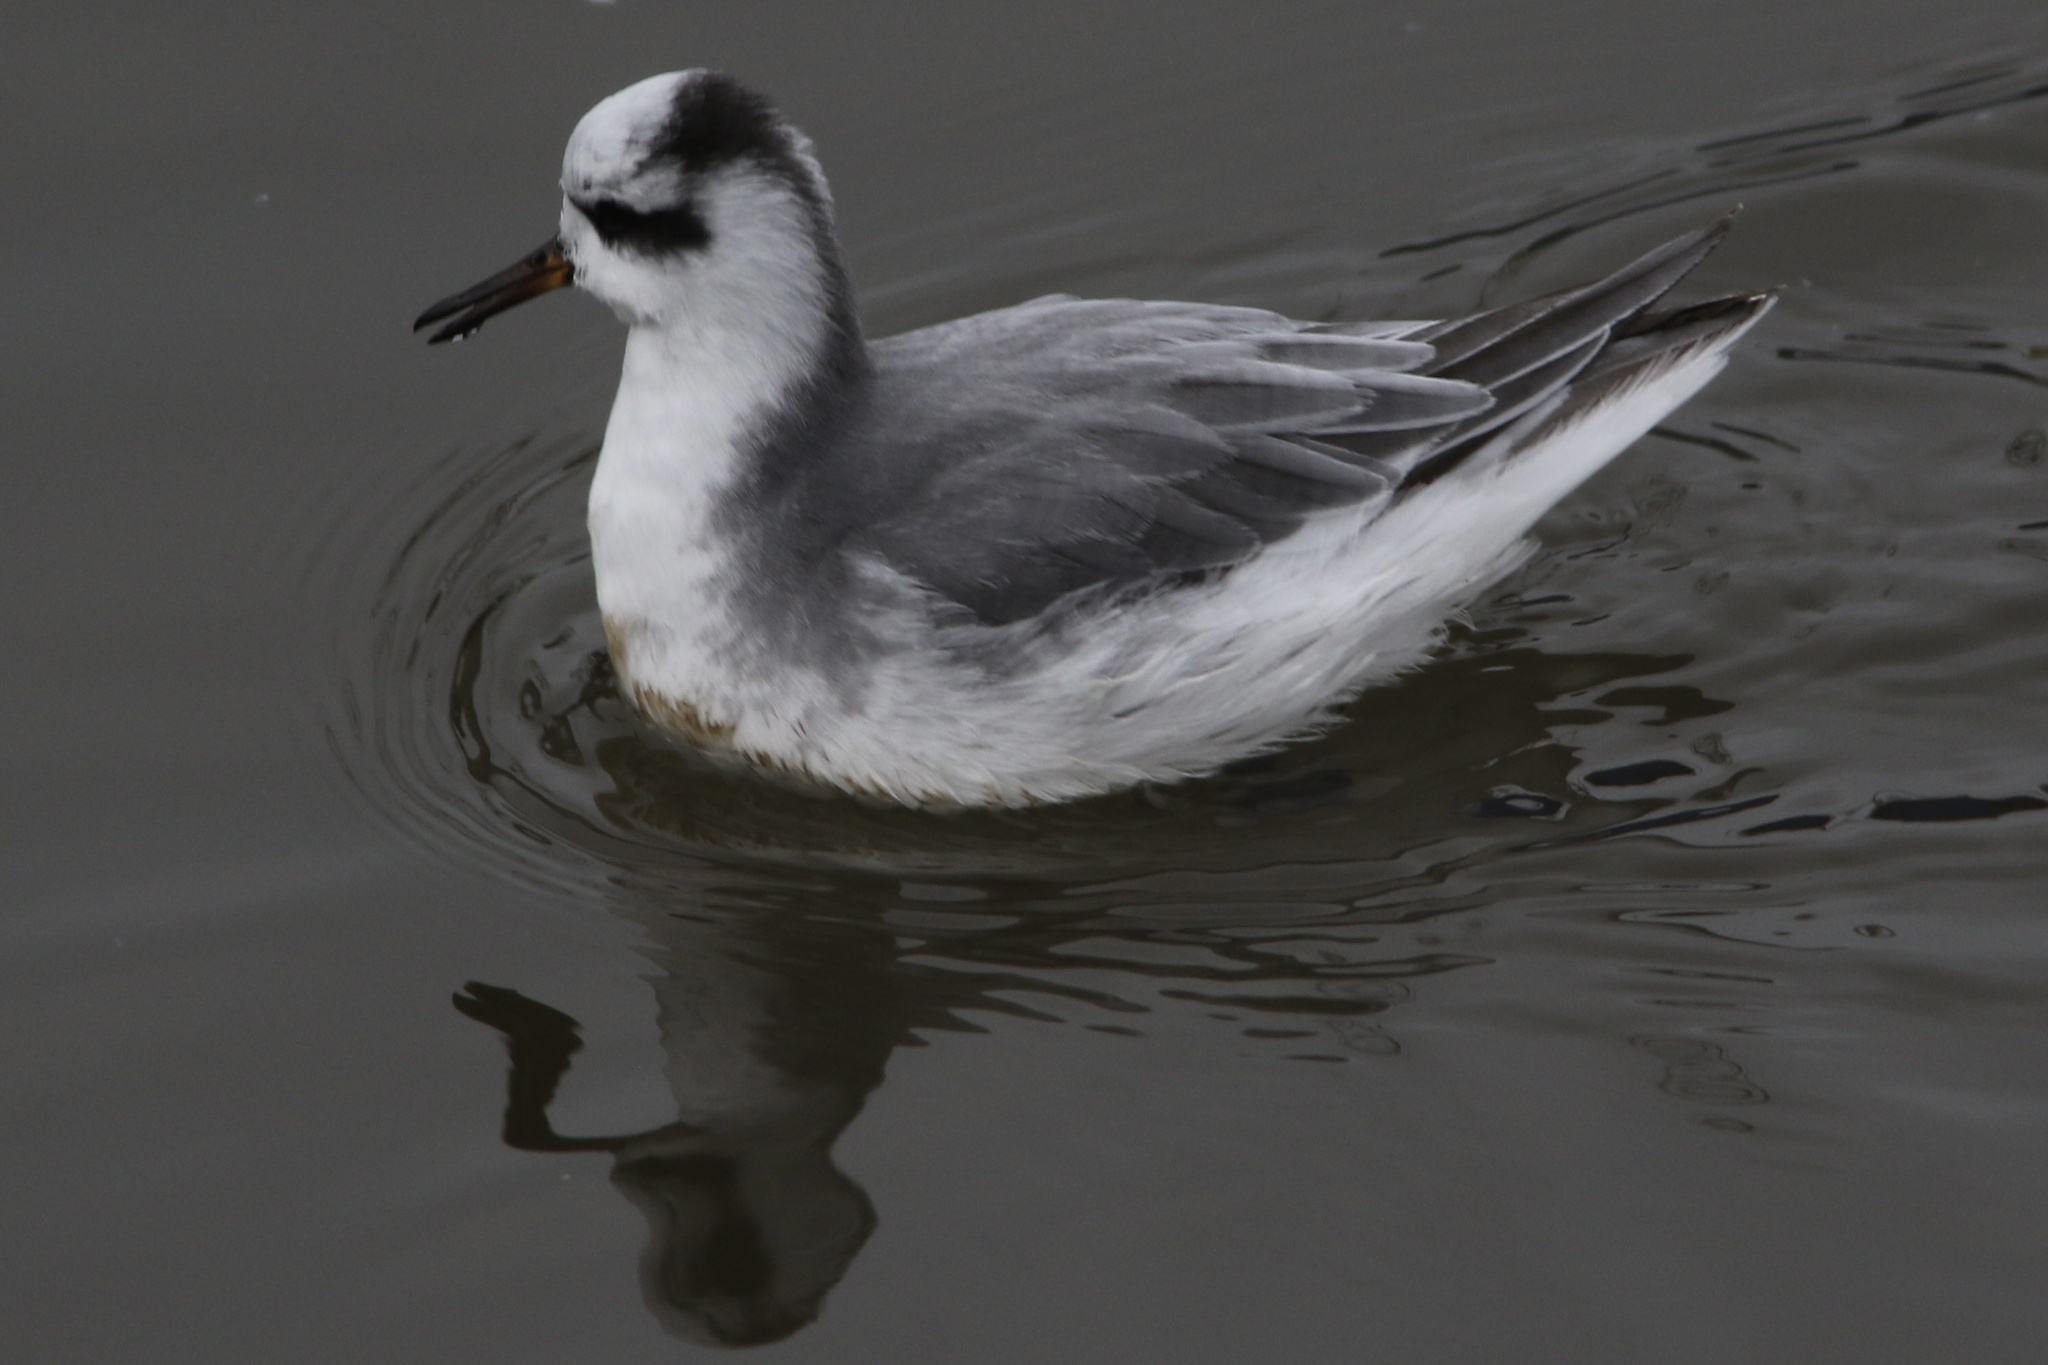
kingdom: Animalia
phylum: Chordata
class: Aves
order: Charadriiformes
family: Scolopacidae
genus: Phalaropus
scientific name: Phalaropus fulicarius
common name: Red phalarope
